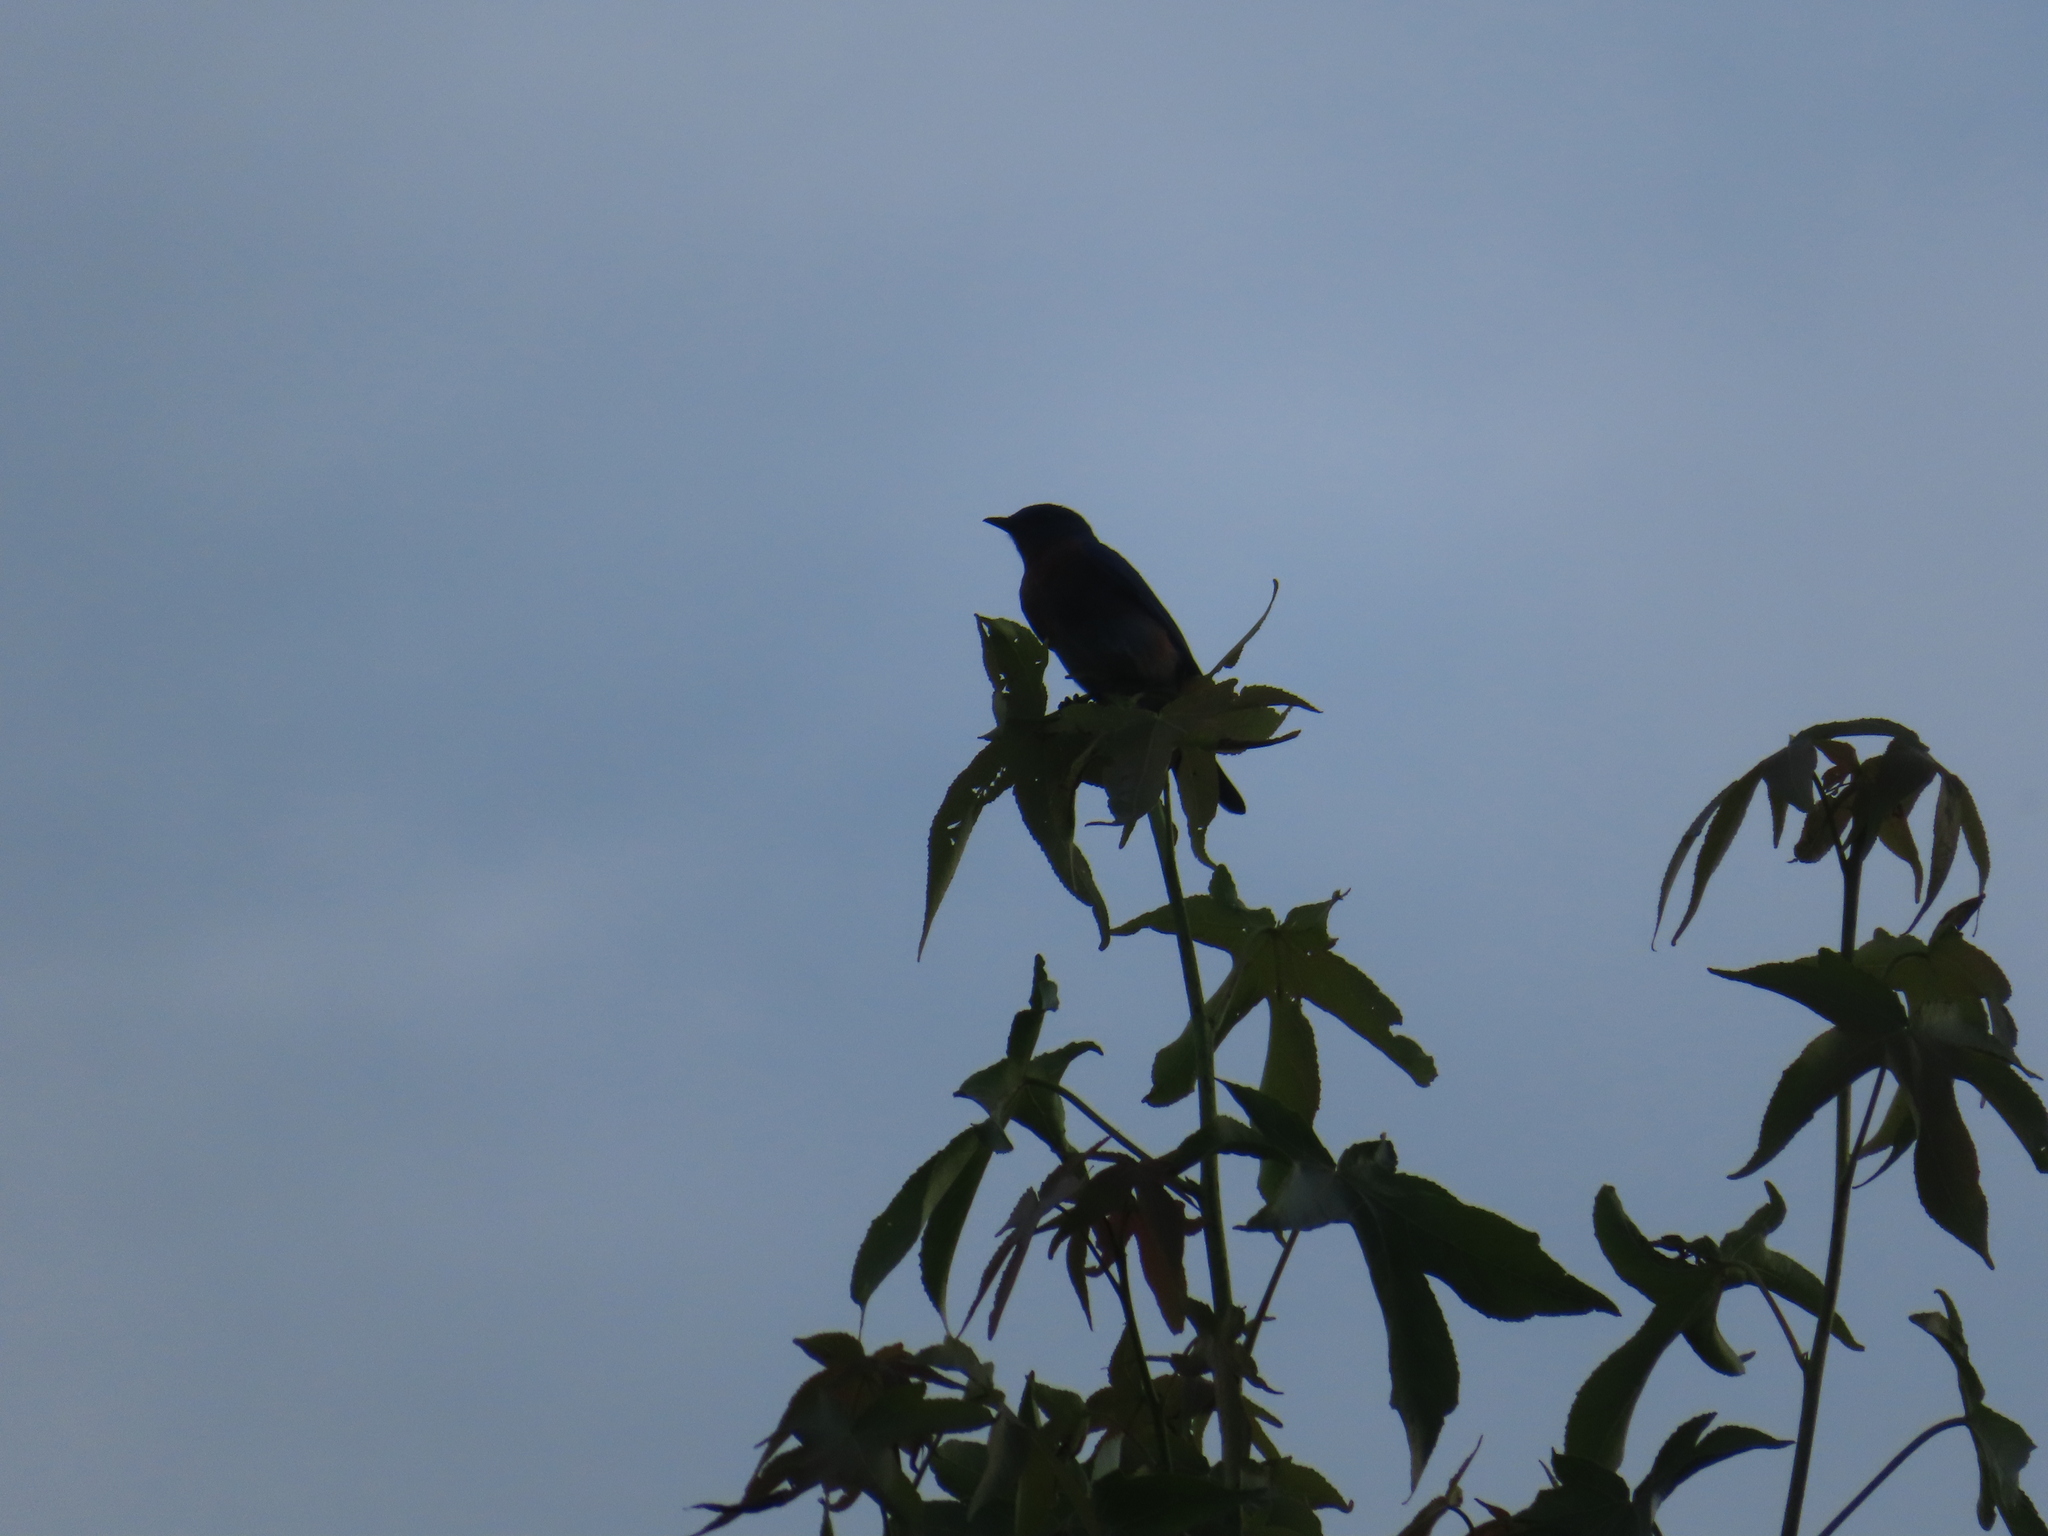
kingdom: Animalia
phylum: Chordata
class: Aves
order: Passeriformes
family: Turdidae
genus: Sialia
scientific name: Sialia sialis
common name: Eastern bluebird
